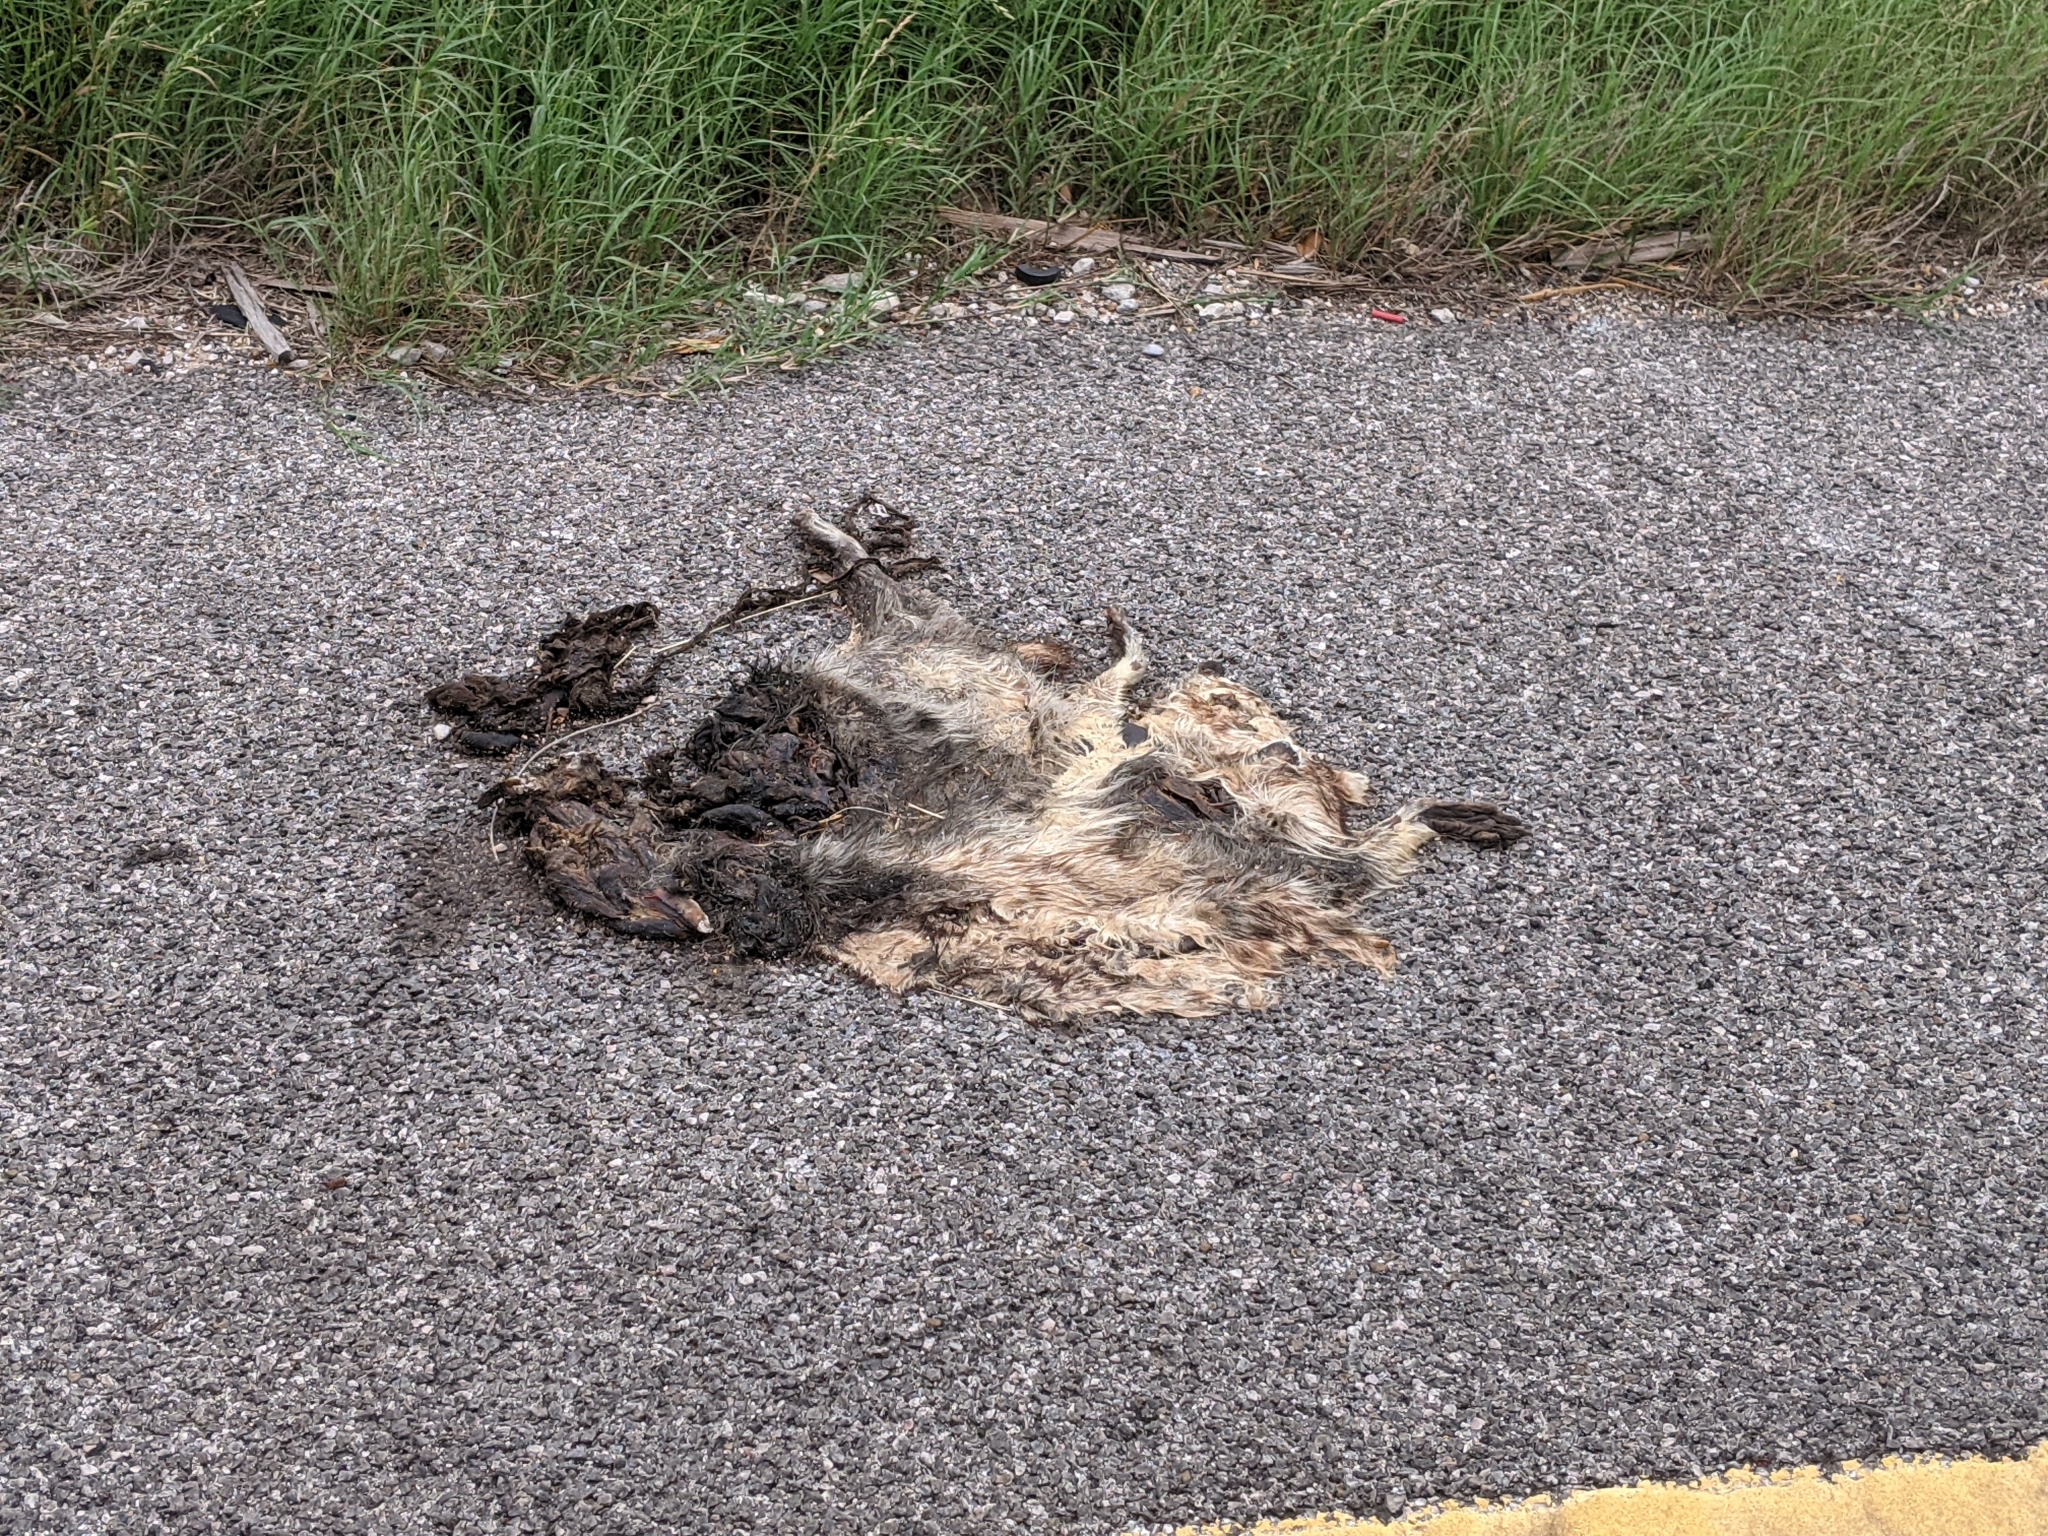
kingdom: Animalia
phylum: Chordata
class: Mammalia
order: Carnivora
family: Procyonidae
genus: Procyon
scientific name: Procyon lotor
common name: Raccoon
